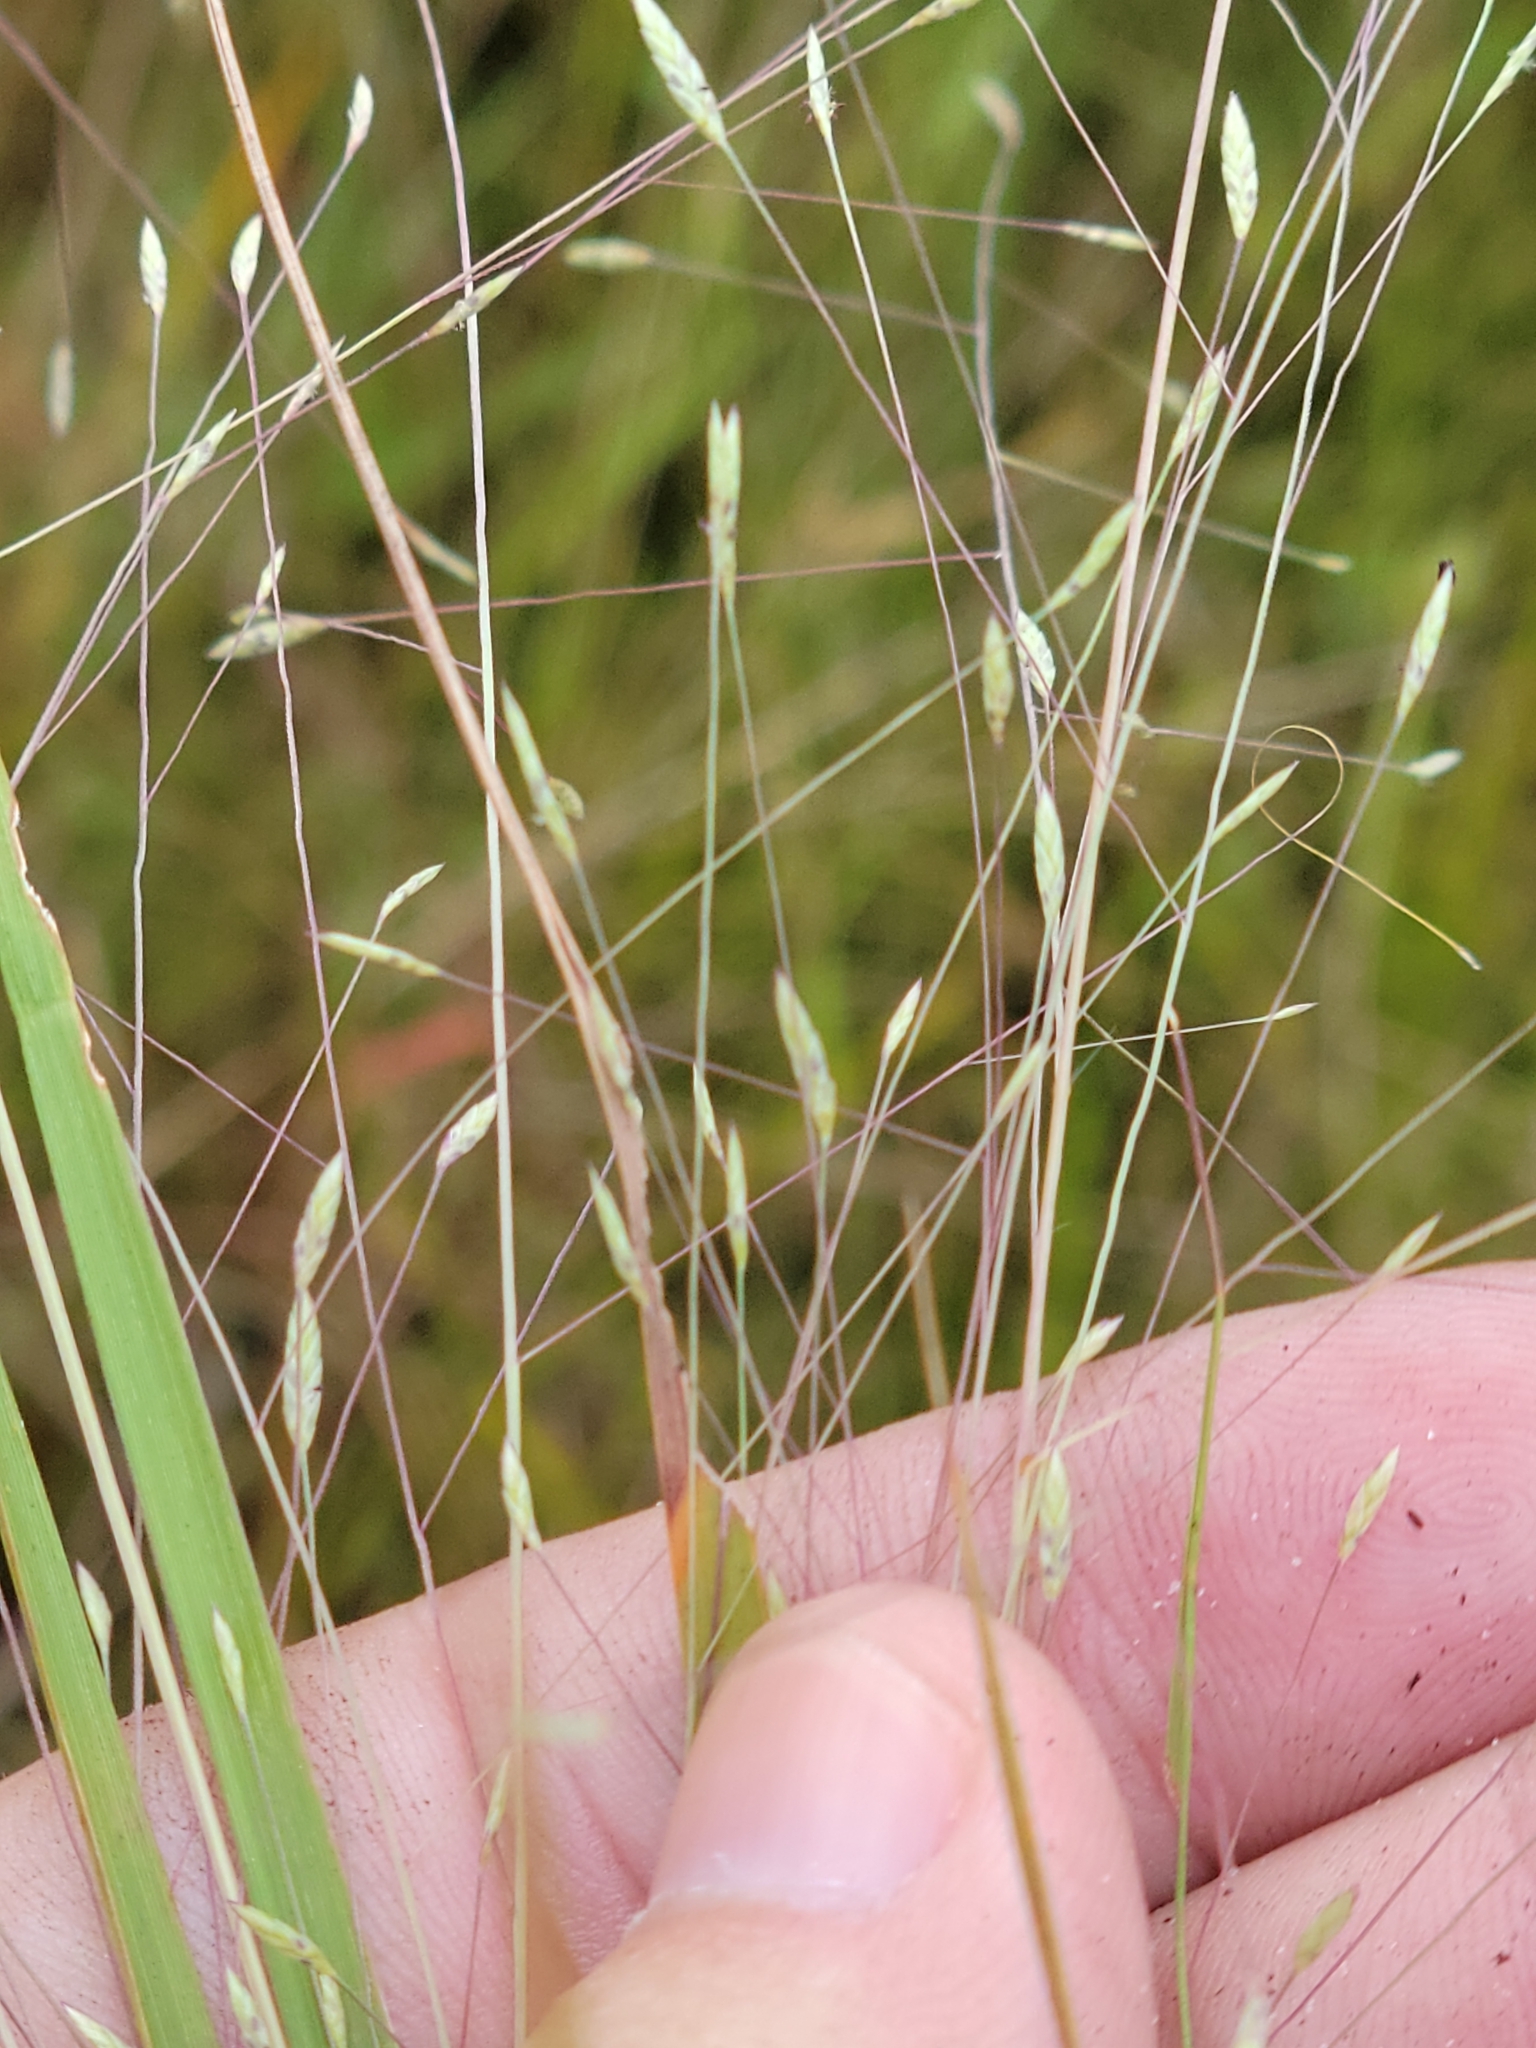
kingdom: Plantae
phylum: Tracheophyta
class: Liliopsida
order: Poales
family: Poaceae
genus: Eragrostis
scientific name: Eragrostis elliottii
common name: Elliott's love grass
